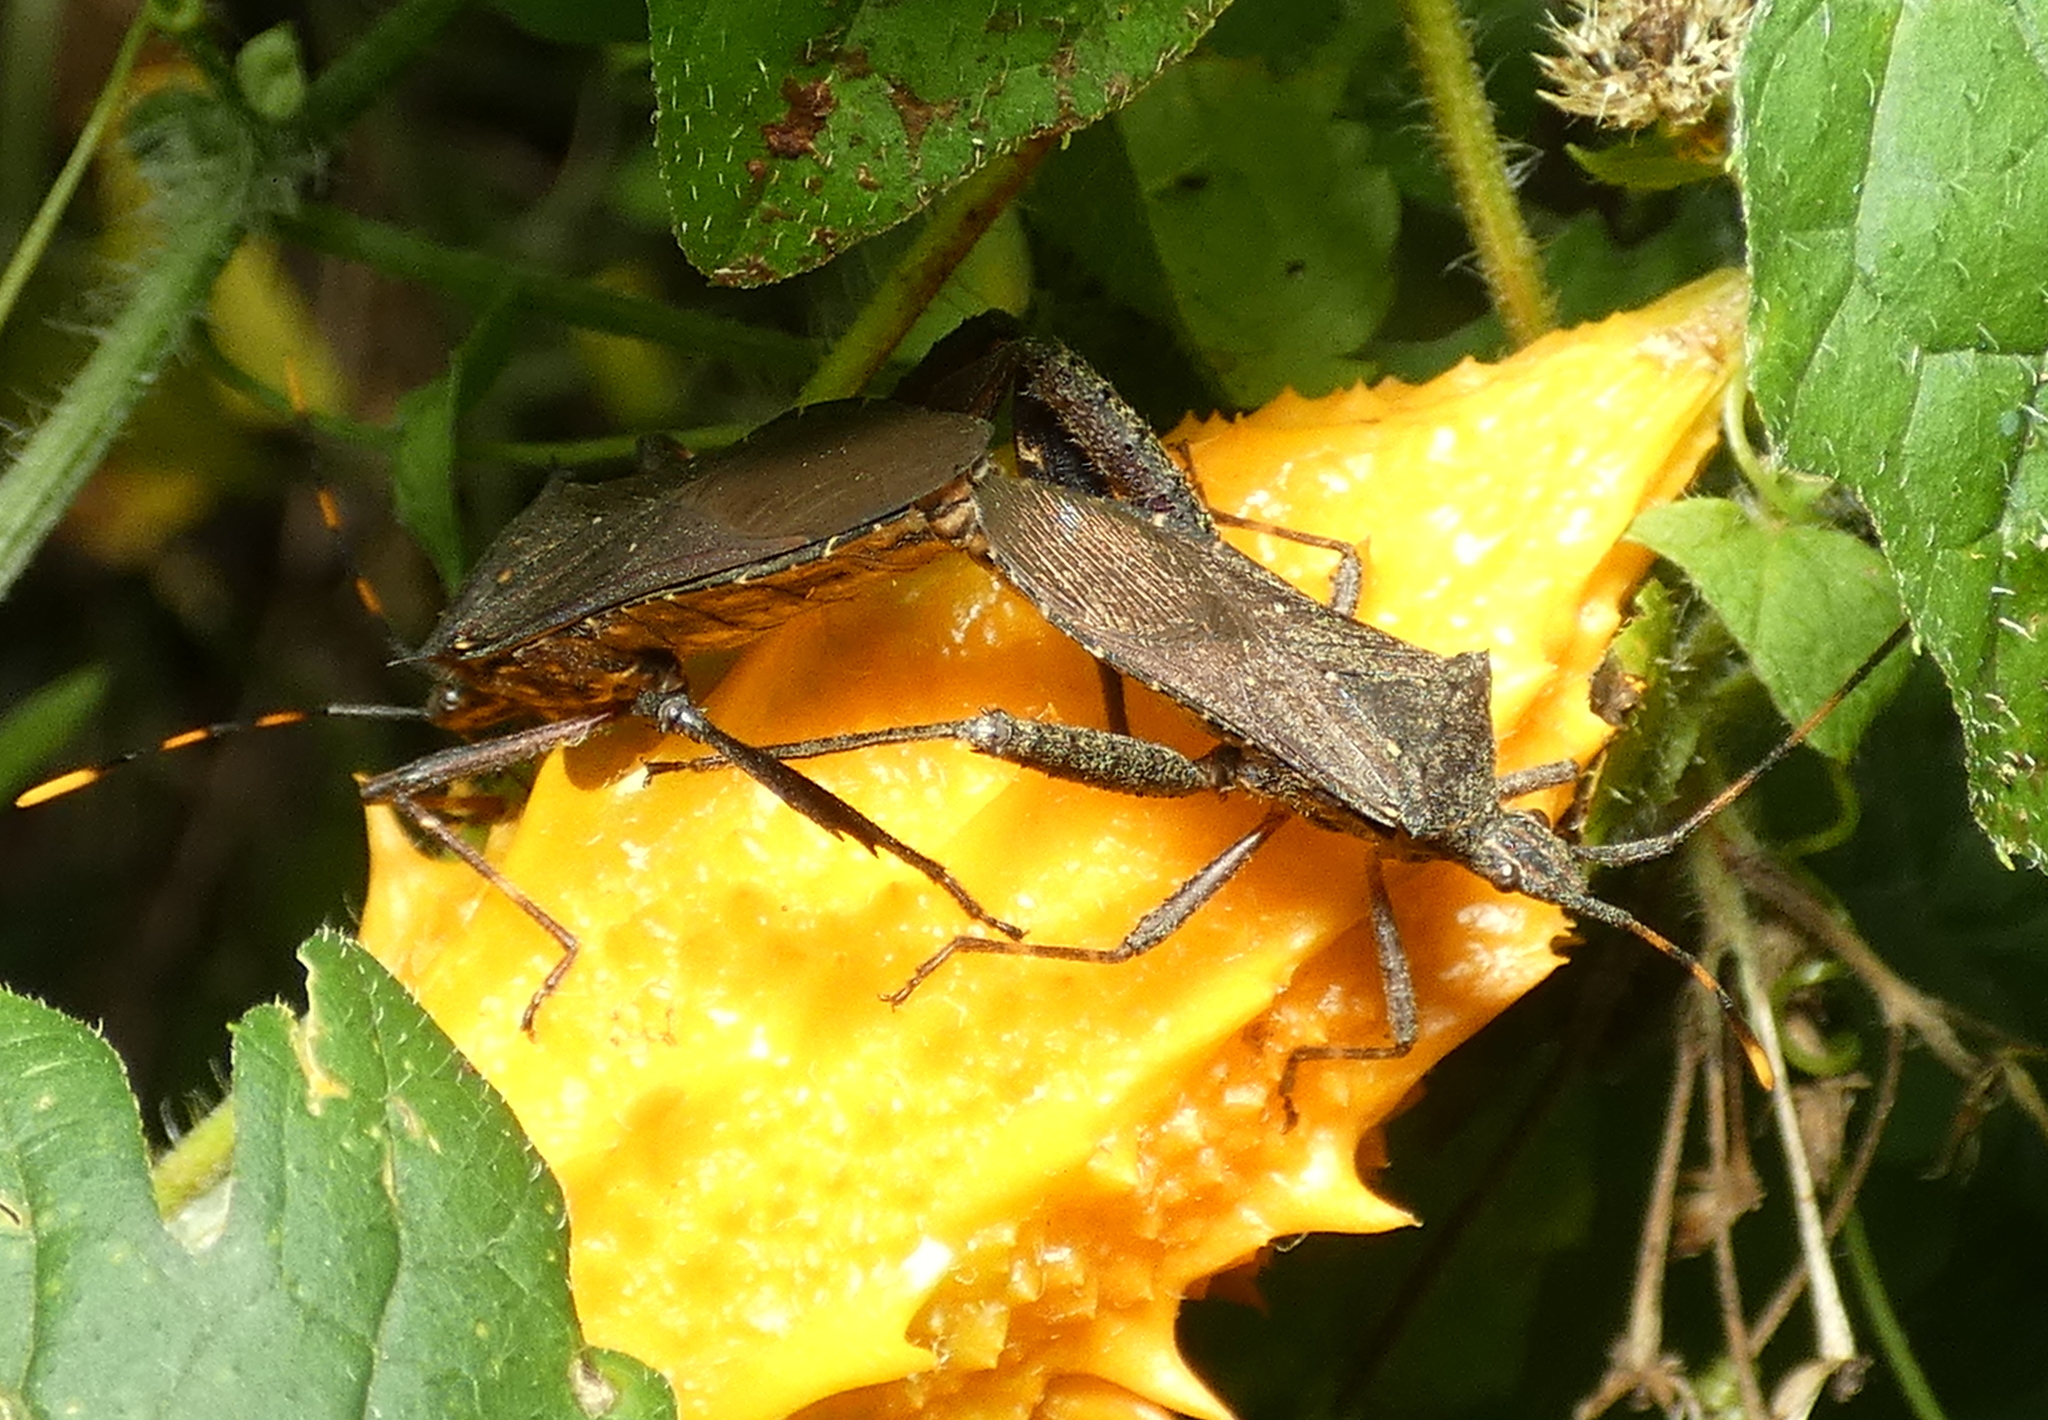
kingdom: Animalia
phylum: Arthropoda
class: Insecta
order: Hemiptera
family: Coreidae
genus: Leptoglossus
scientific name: Leptoglossus gonagra
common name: Citron bug
